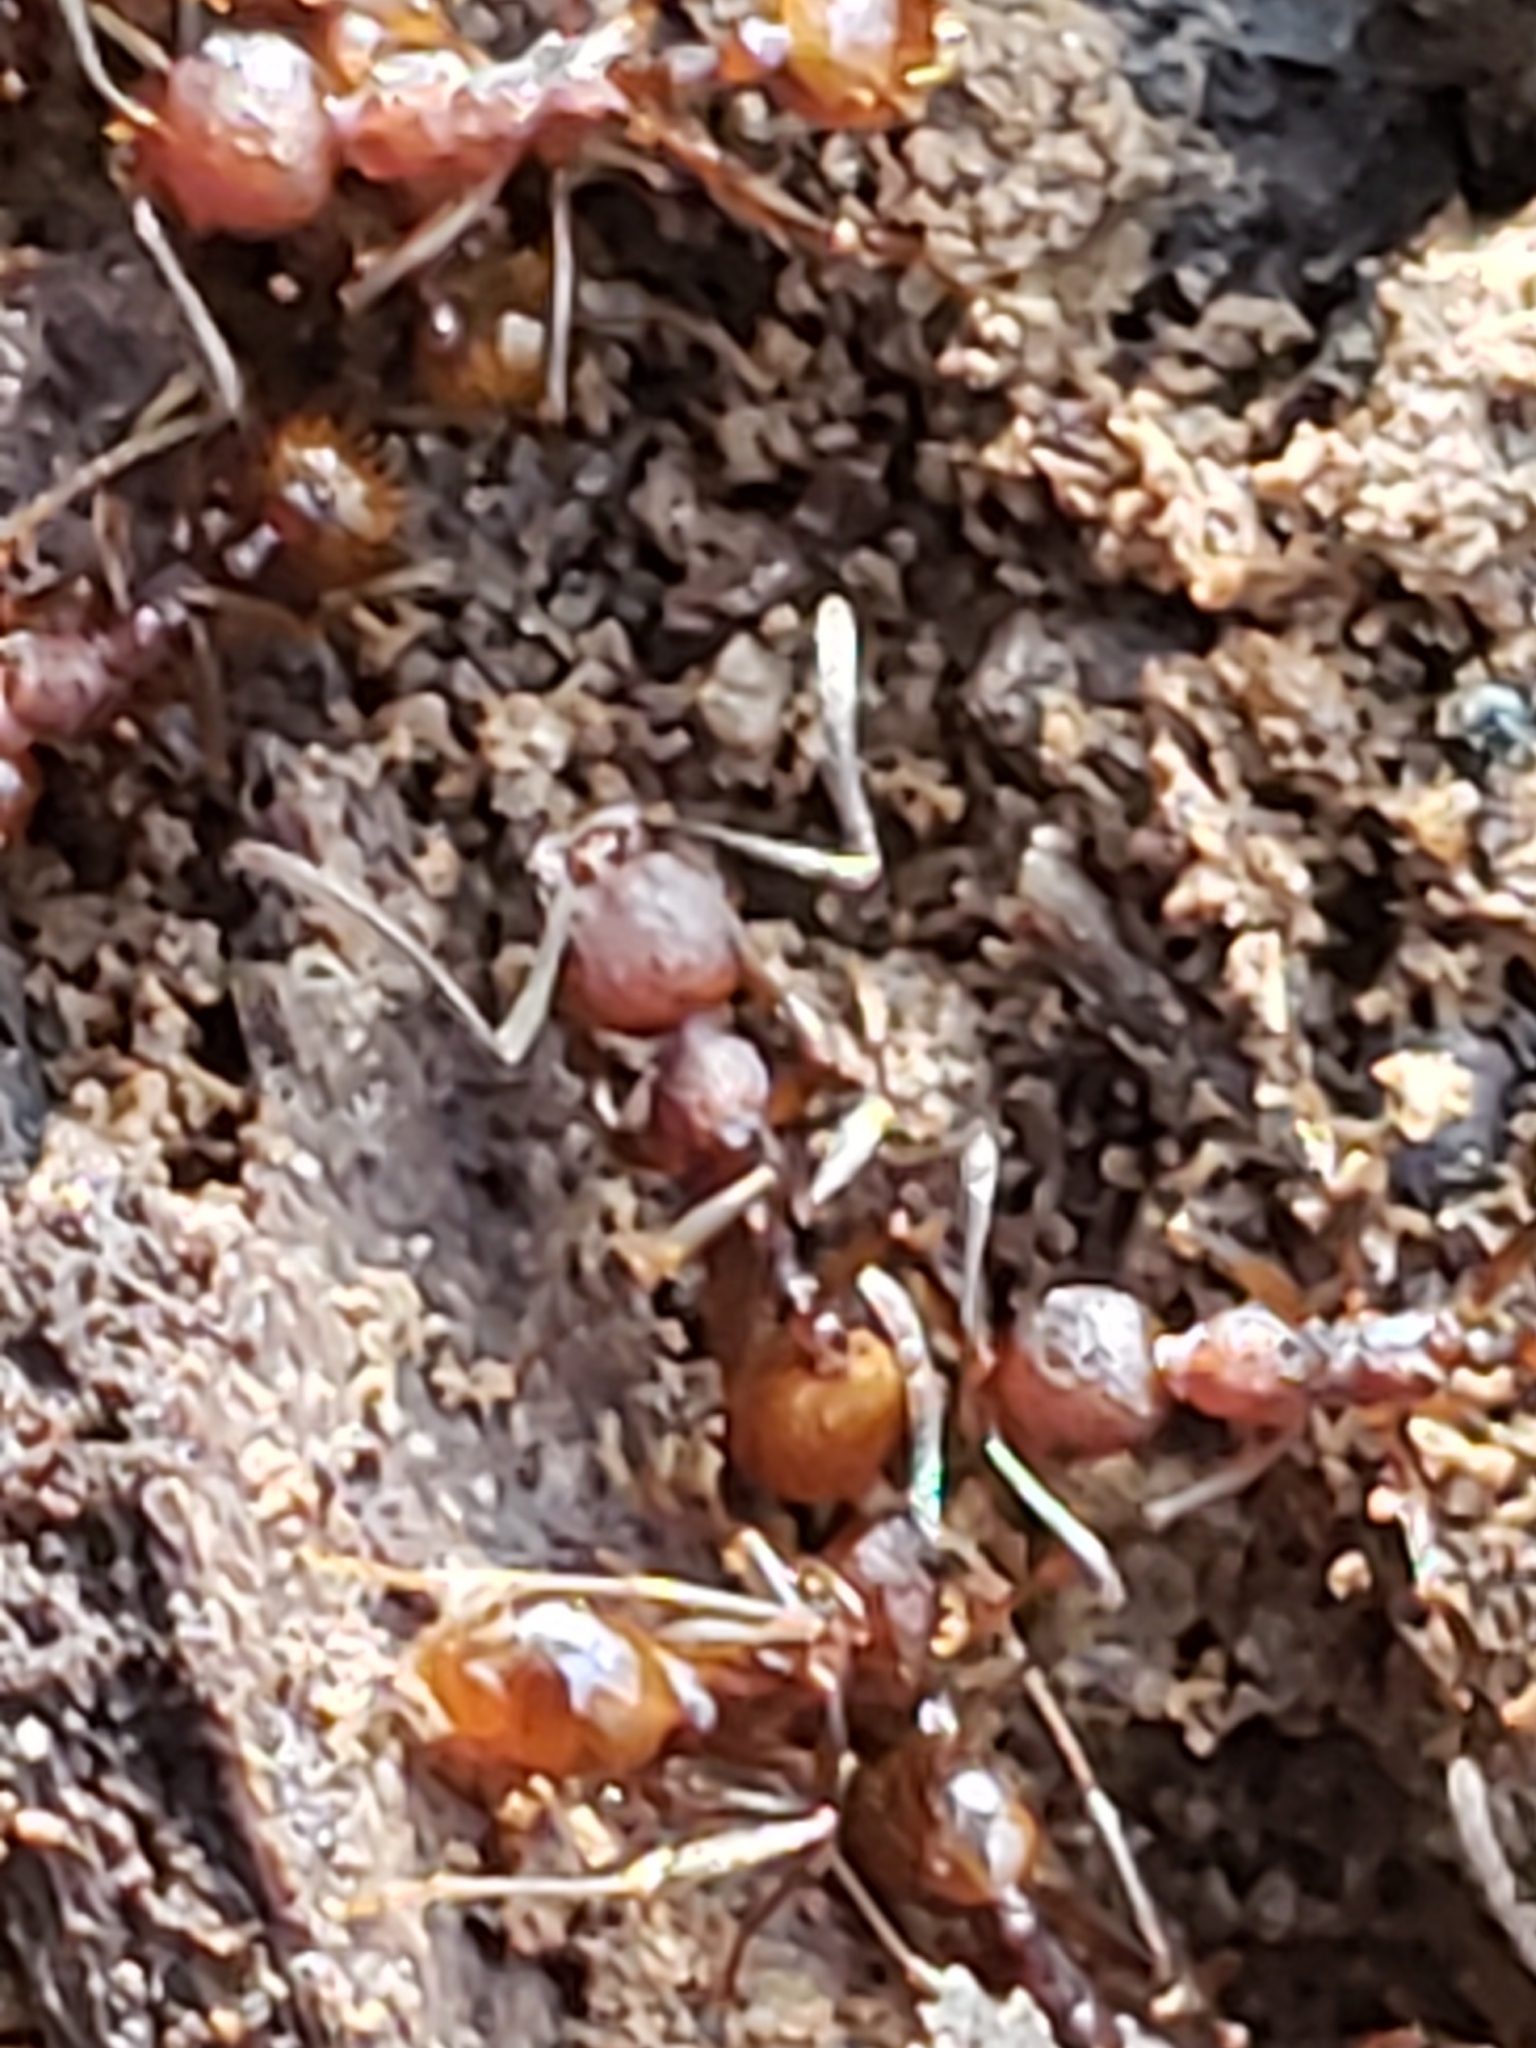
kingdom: Animalia
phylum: Arthropoda
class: Insecta
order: Hymenoptera
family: Formicidae
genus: Aphaenogaster
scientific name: Aphaenogaster fulva
